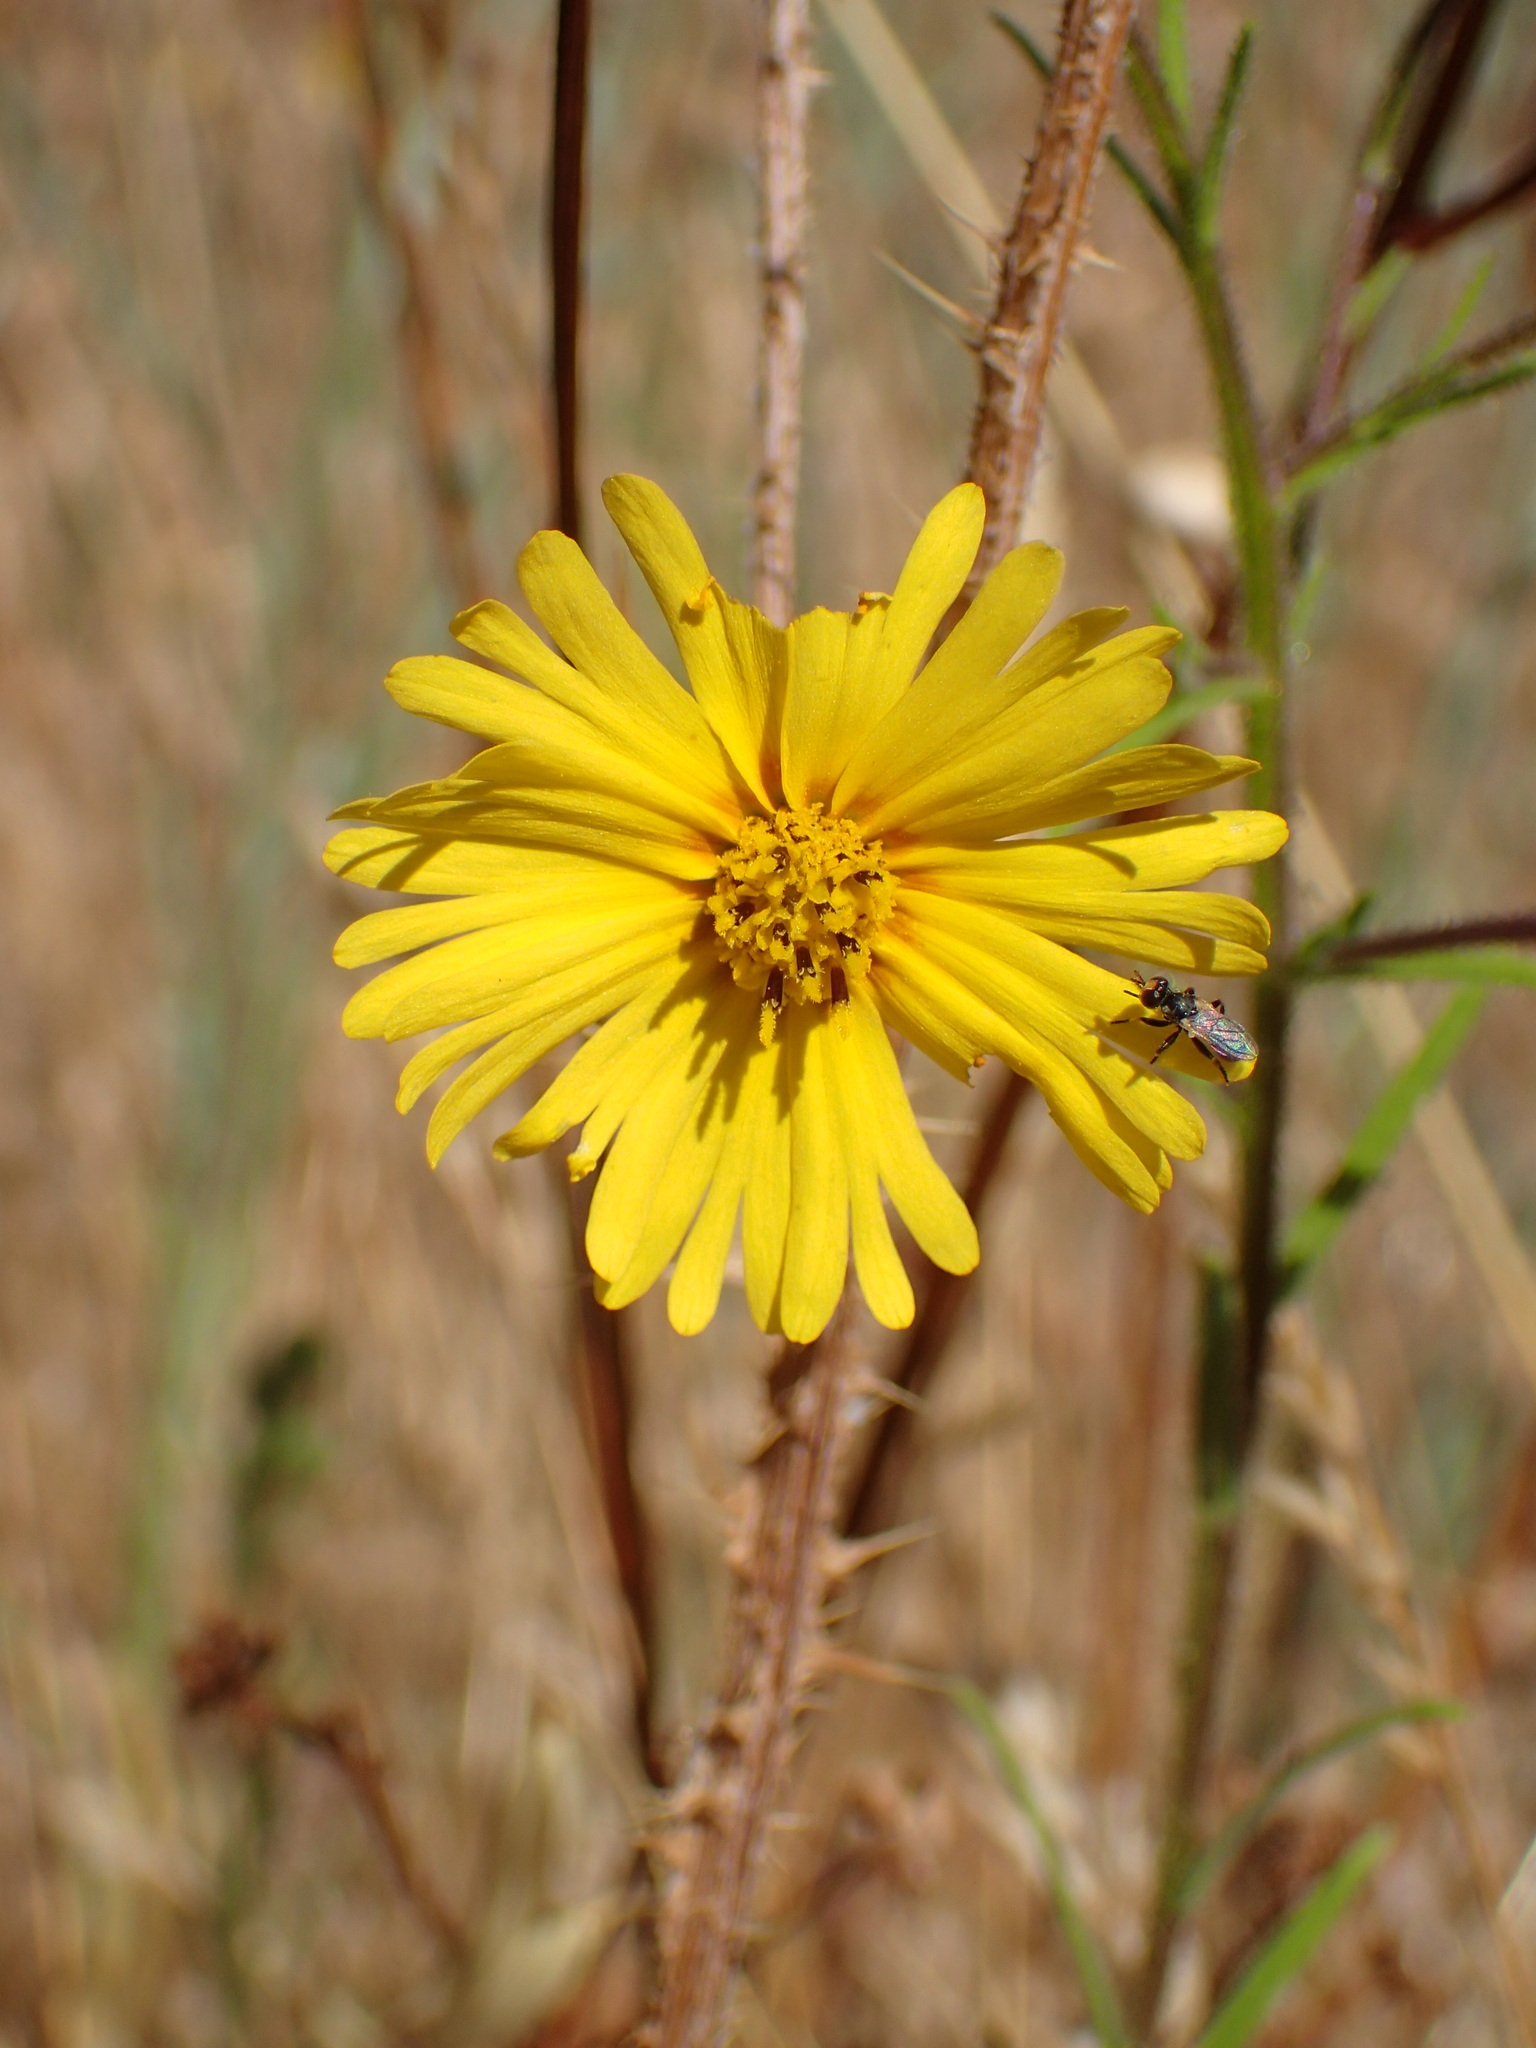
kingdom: Plantae
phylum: Tracheophyta
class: Magnoliopsida
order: Asterales
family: Asteraceae
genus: Madia
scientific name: Madia elegans
